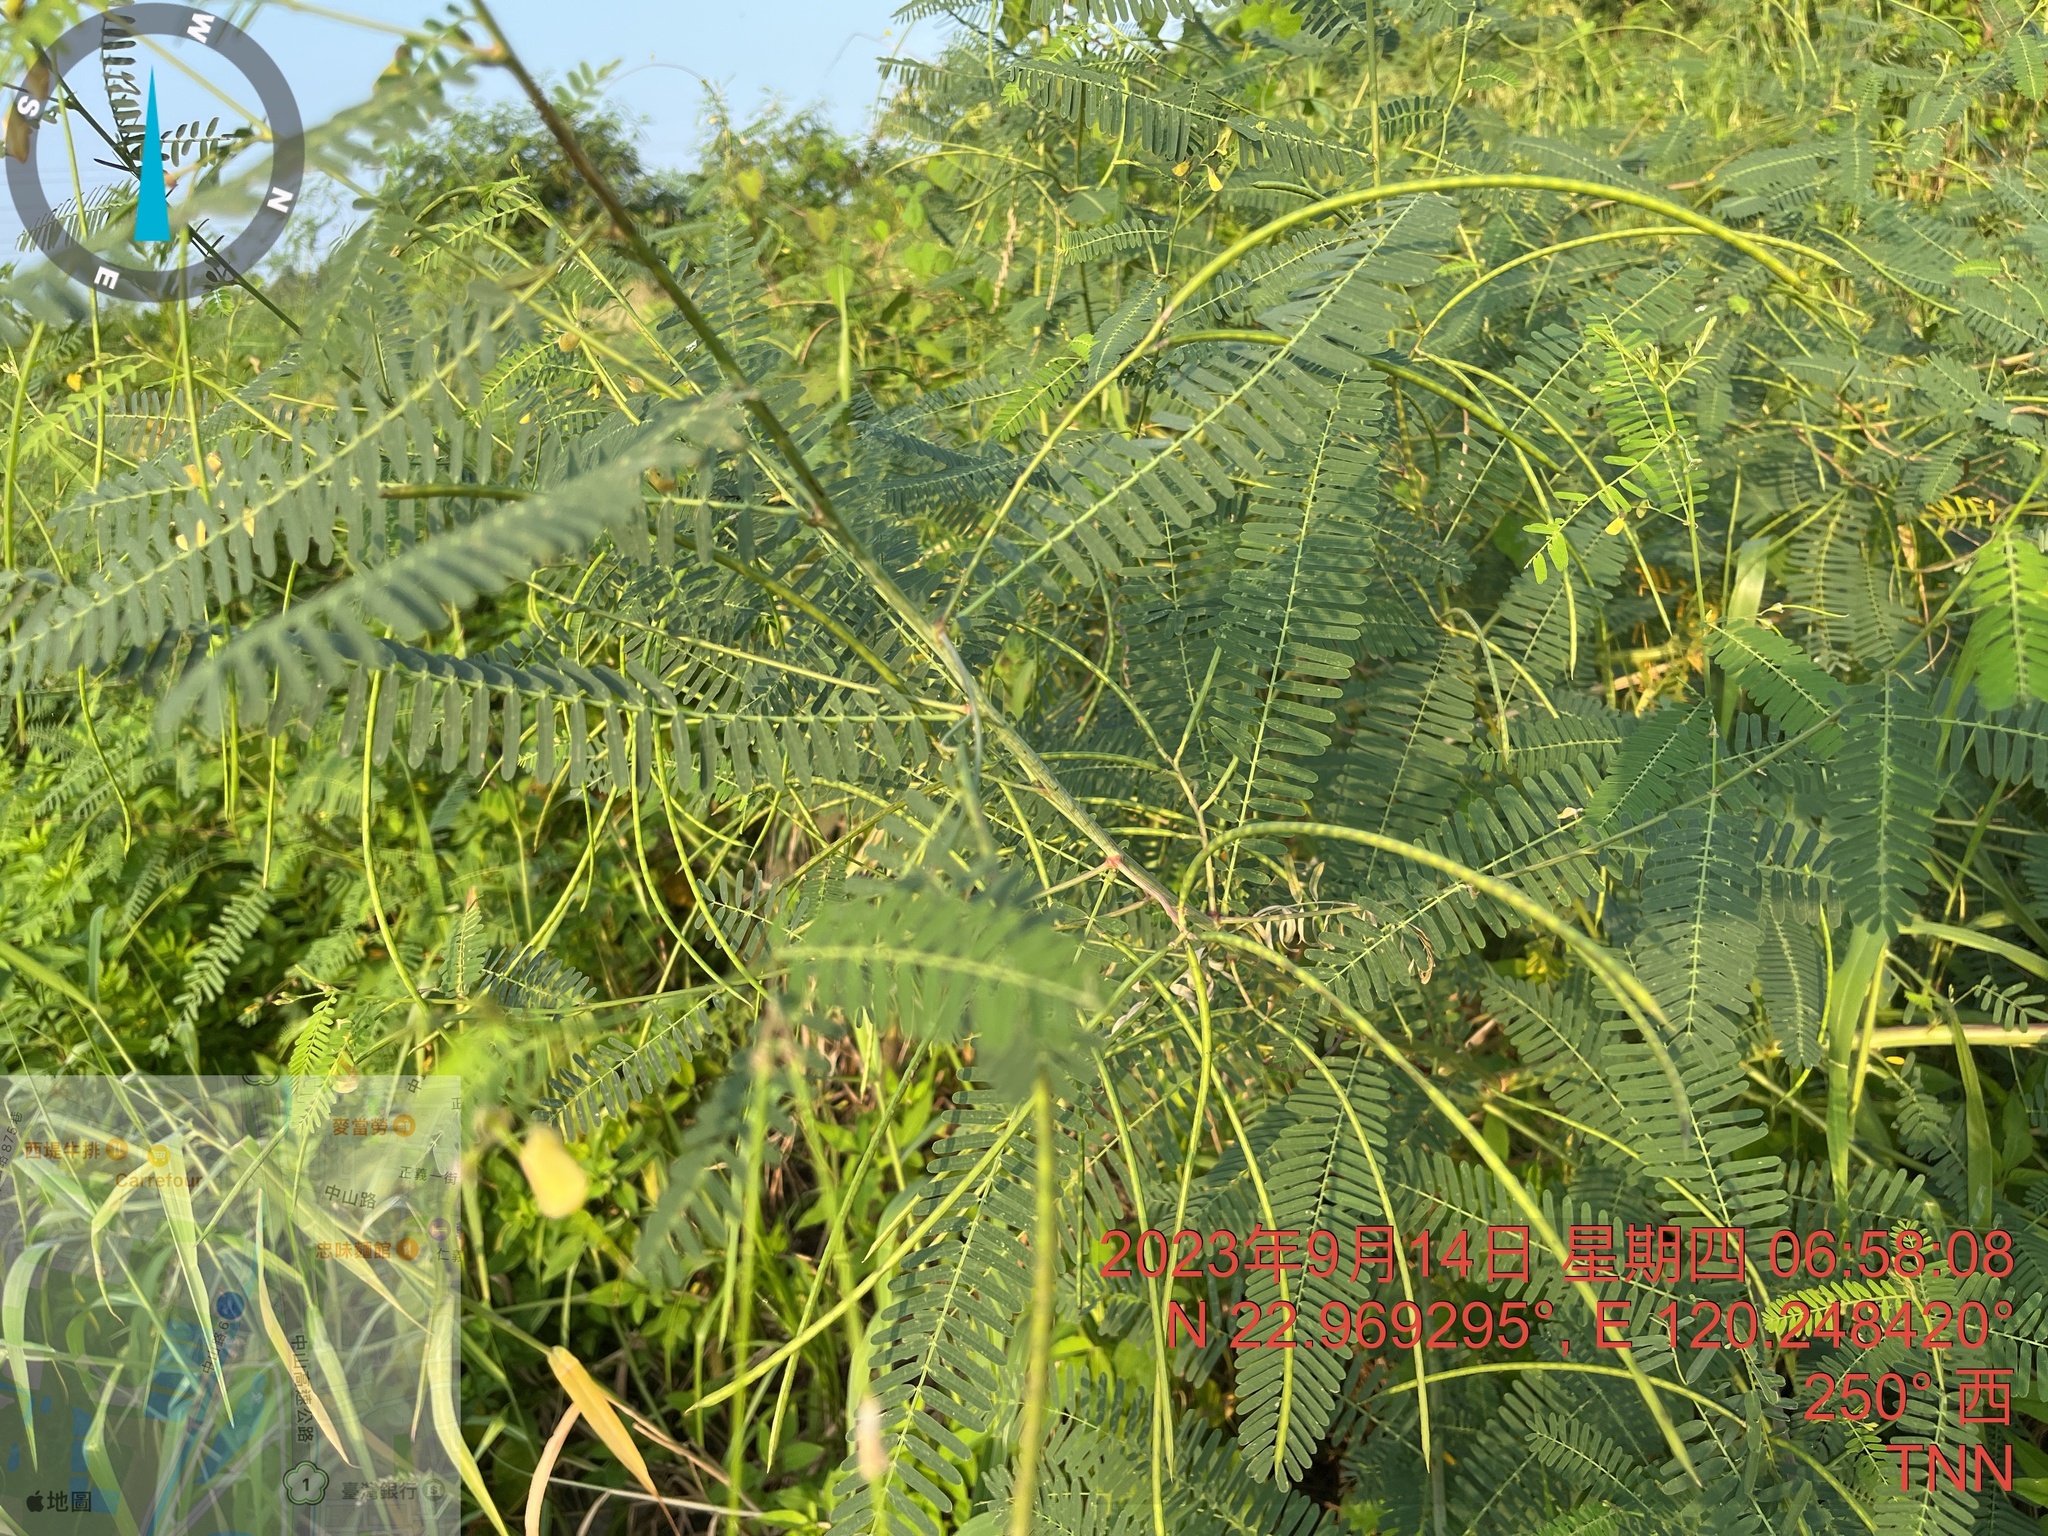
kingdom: Plantae
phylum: Tracheophyta
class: Magnoliopsida
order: Fabales
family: Fabaceae
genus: Sesbania
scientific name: Sesbania cannabina
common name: Canicha
